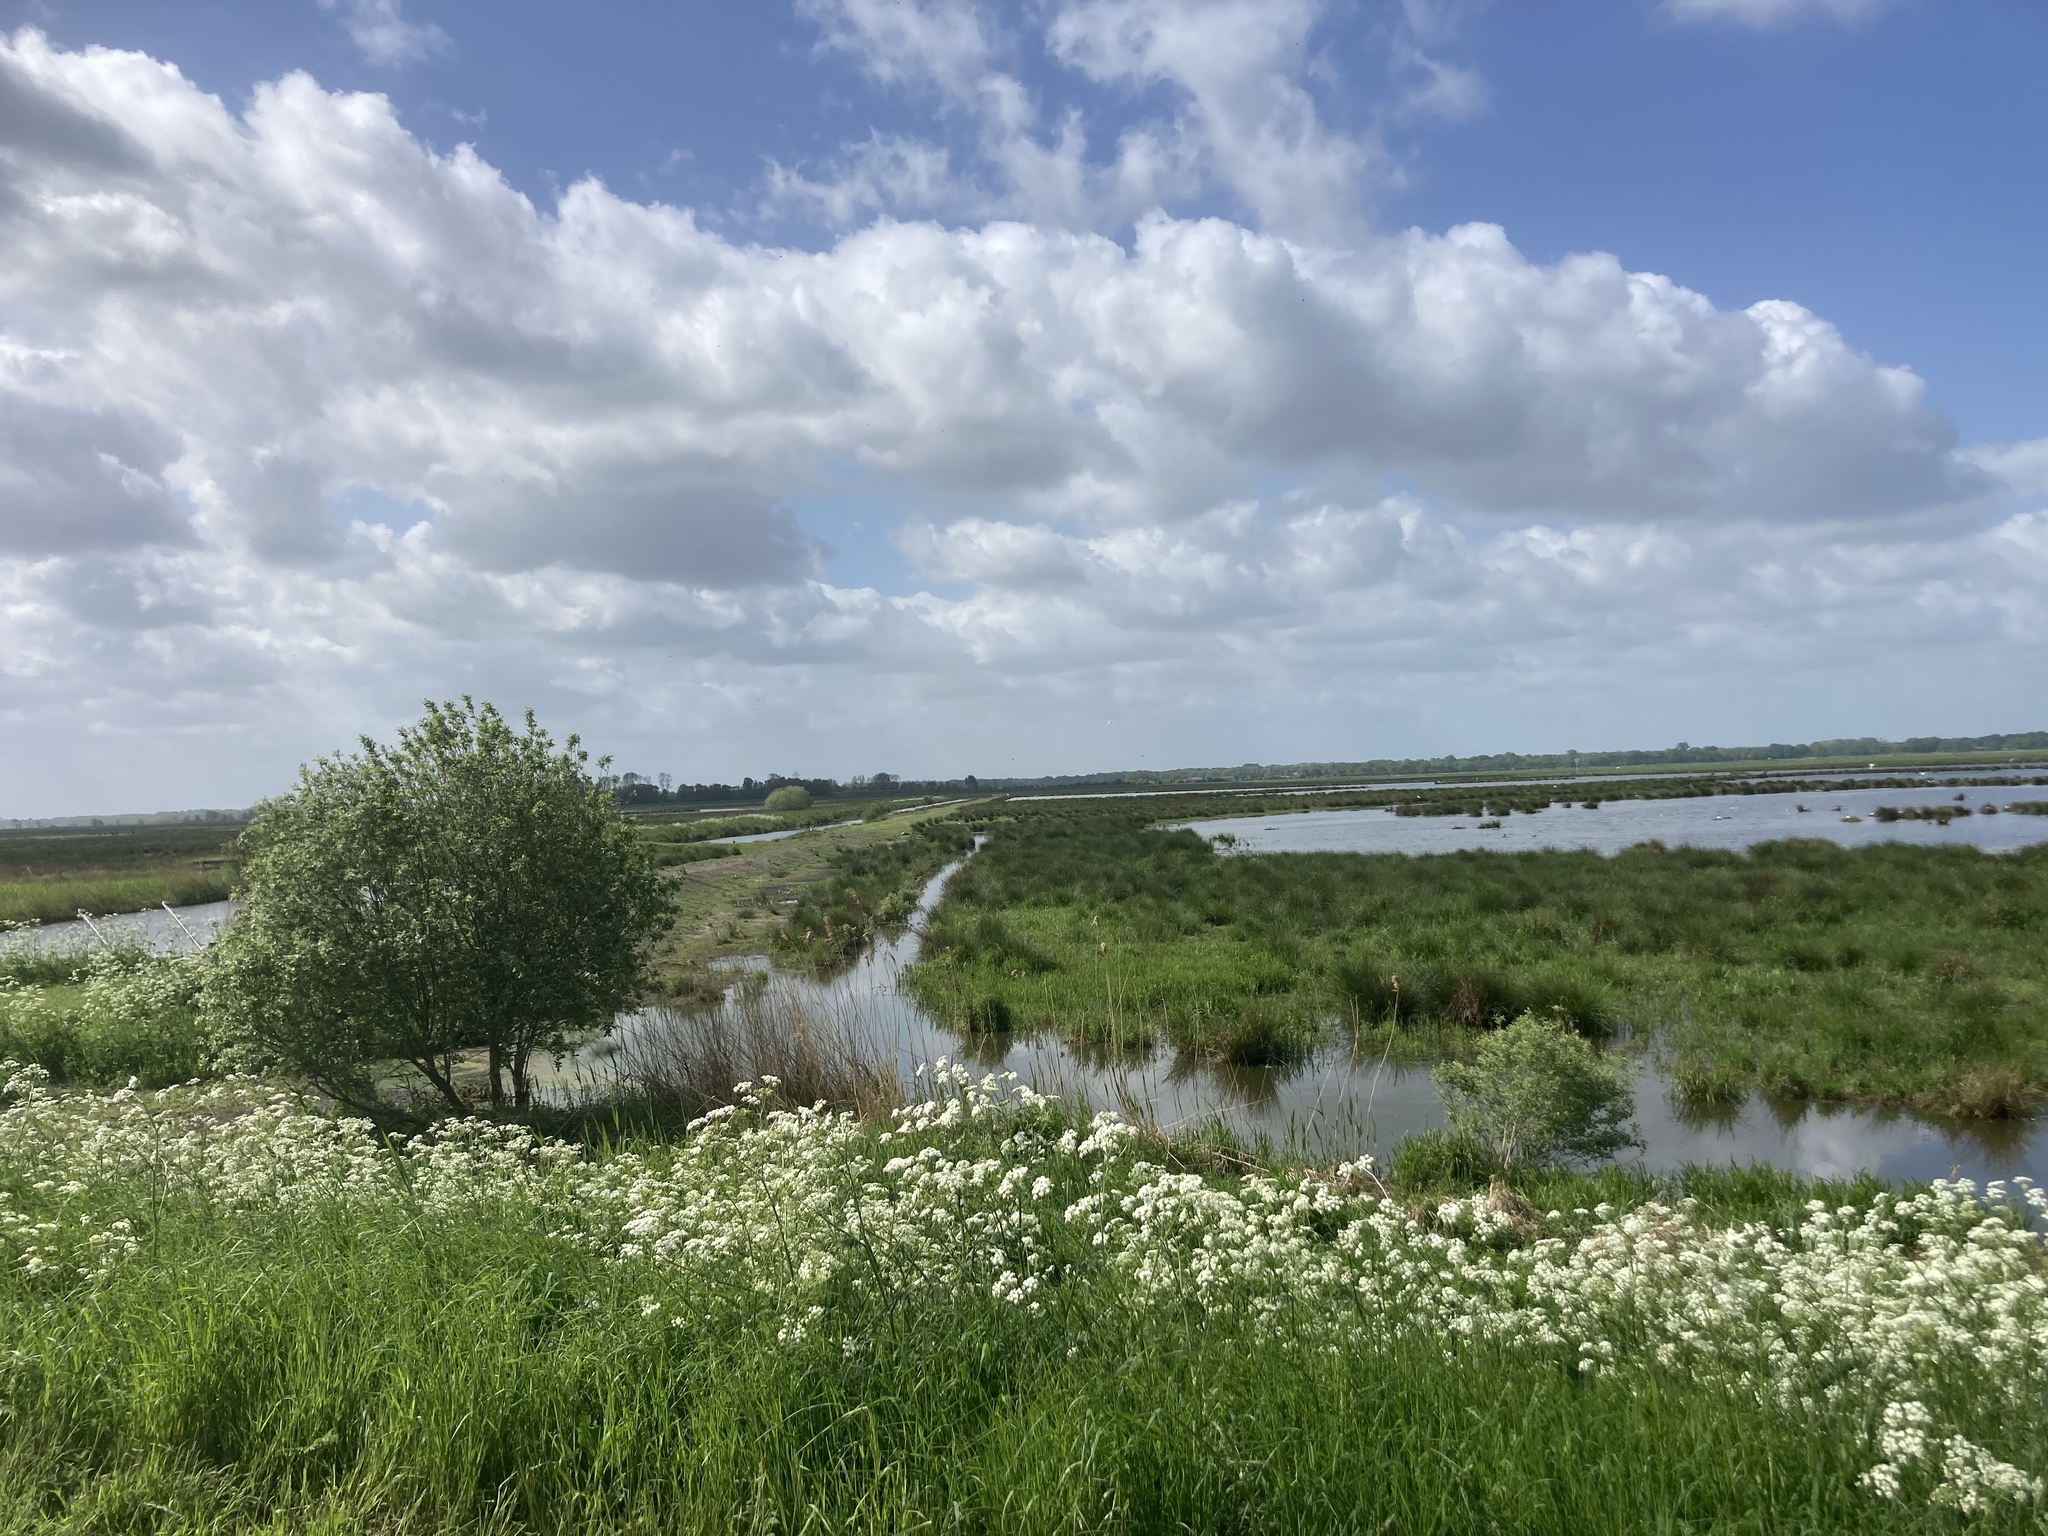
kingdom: Plantae
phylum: Tracheophyta
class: Liliopsida
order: Poales
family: Poaceae
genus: Phragmites
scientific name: Phragmites australis
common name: Common reed
